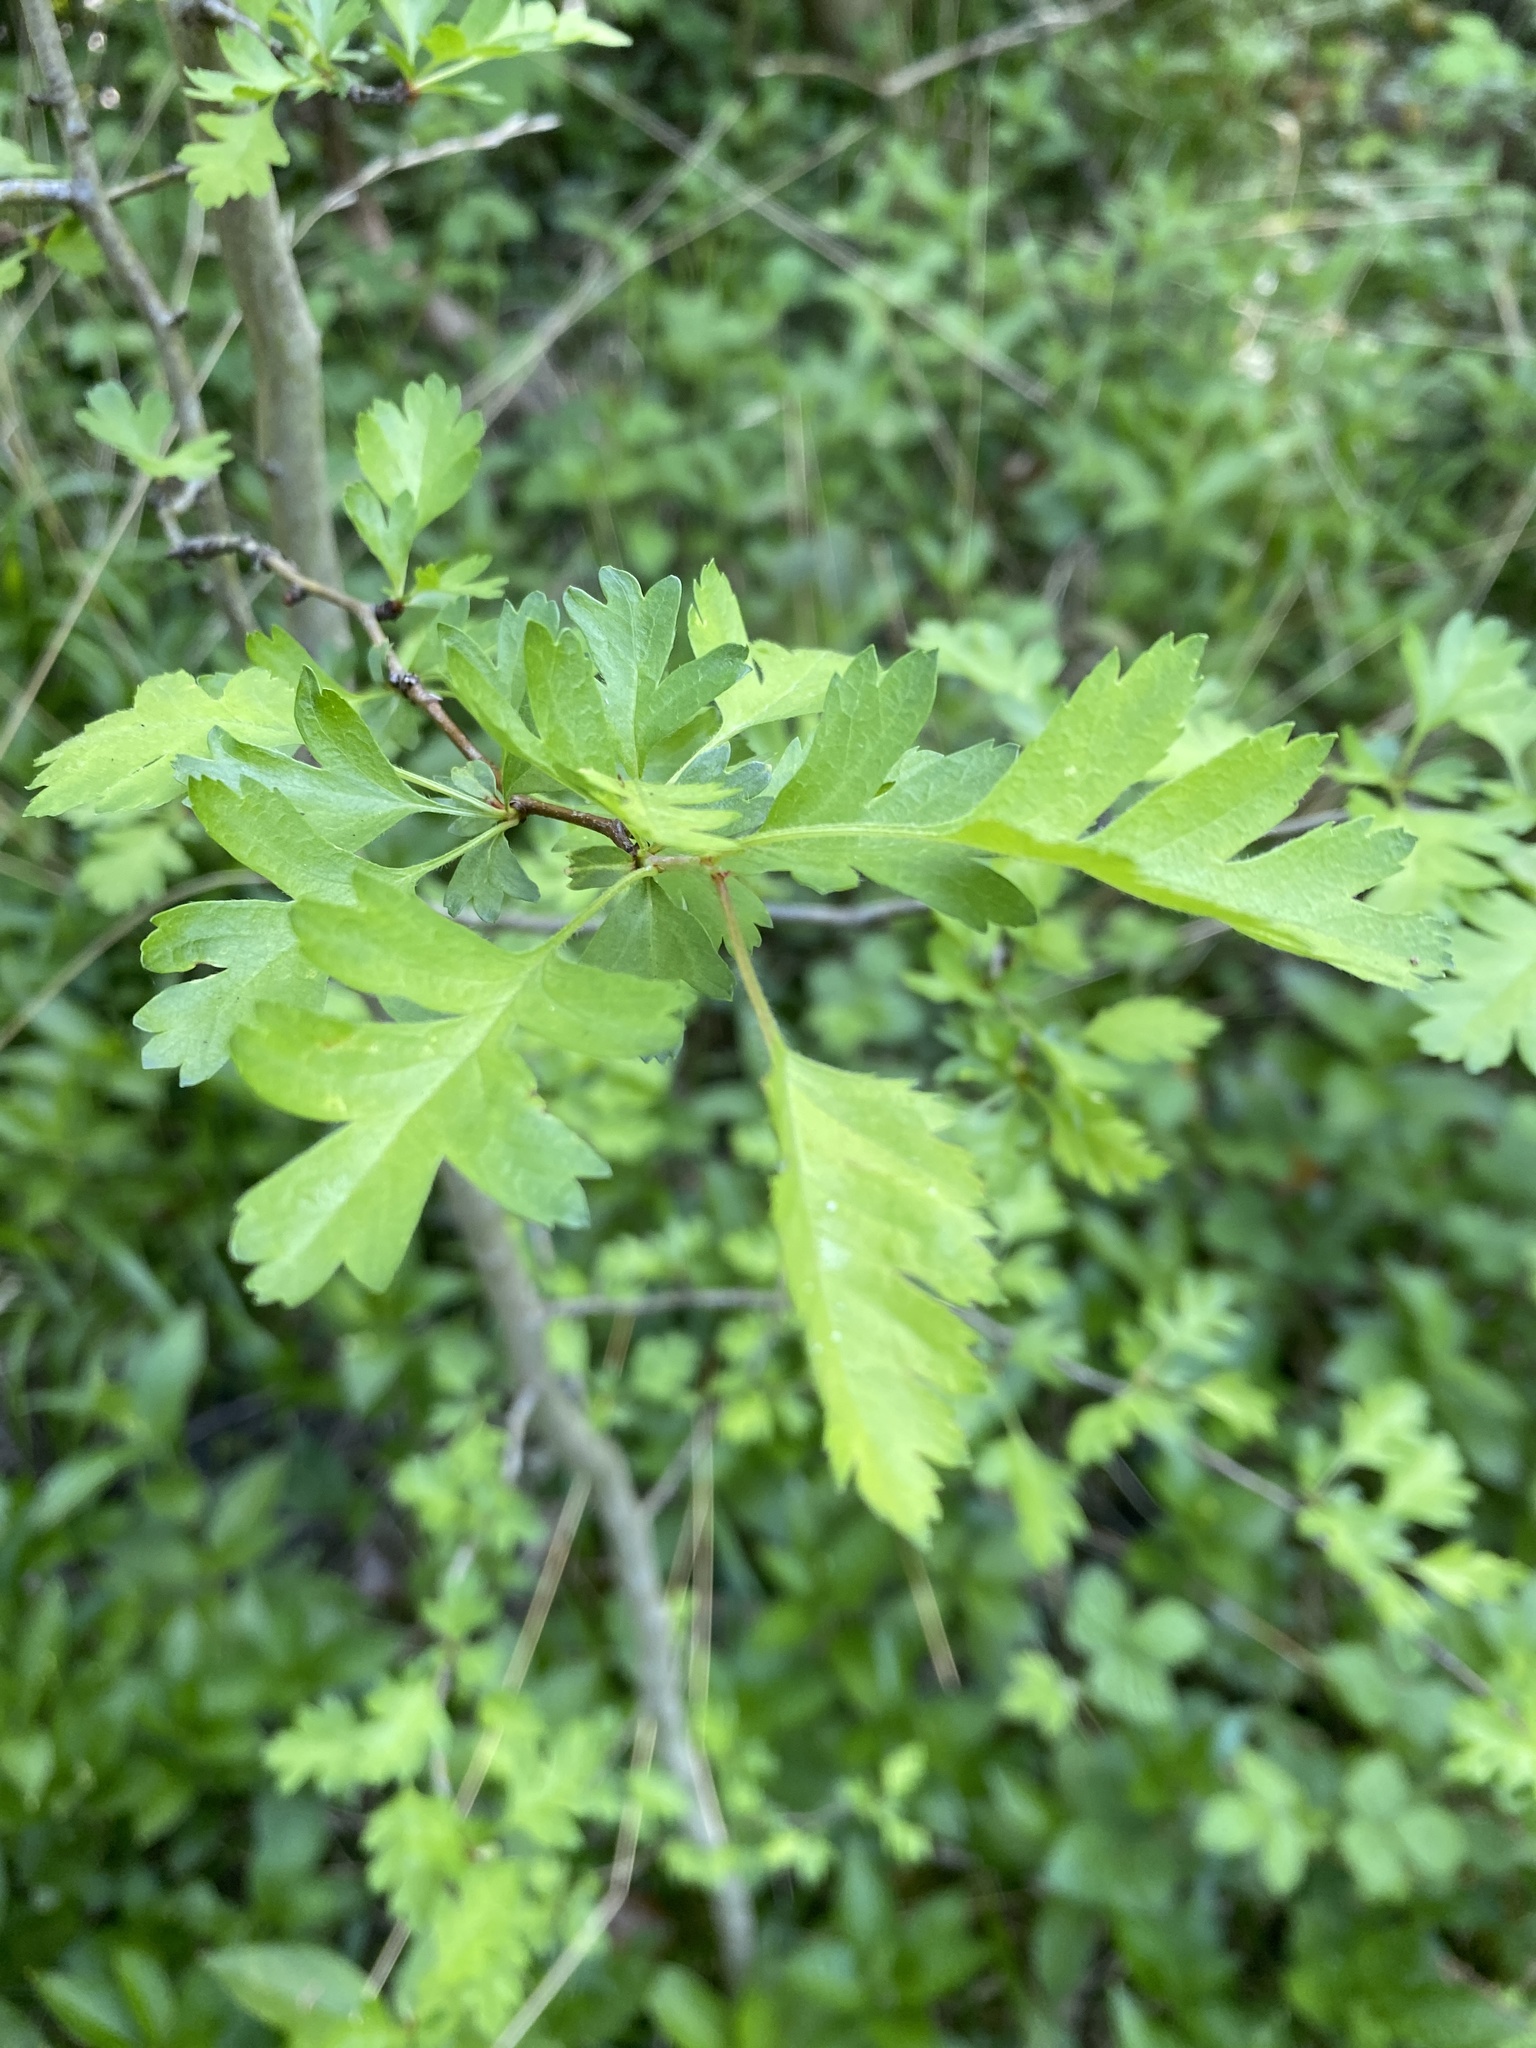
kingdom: Plantae
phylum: Tracheophyta
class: Magnoliopsida
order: Rosales
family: Rosaceae
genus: Crataegus
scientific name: Crataegus monogyna
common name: Hawthorn
